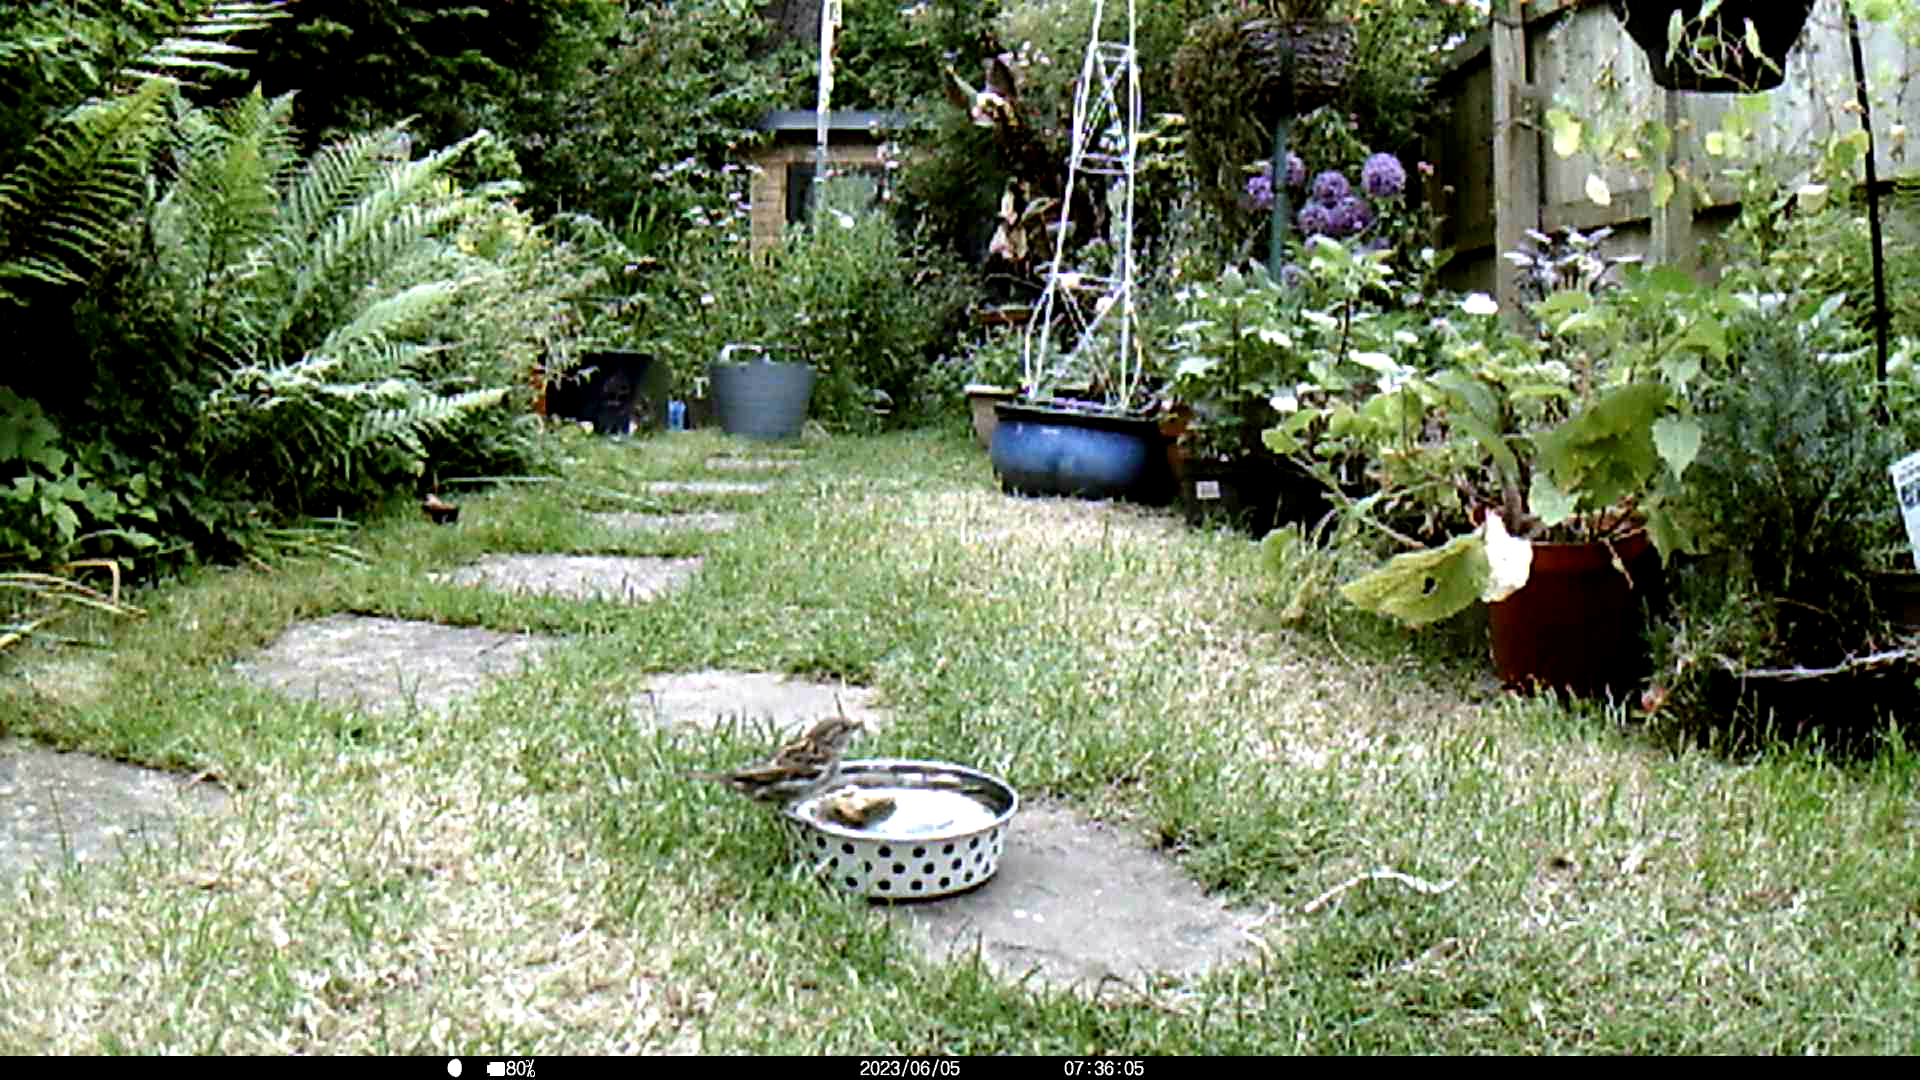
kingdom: Animalia
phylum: Chordata
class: Aves
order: Passeriformes
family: Passeridae
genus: Passer
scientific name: Passer domesticus
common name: House sparrow
